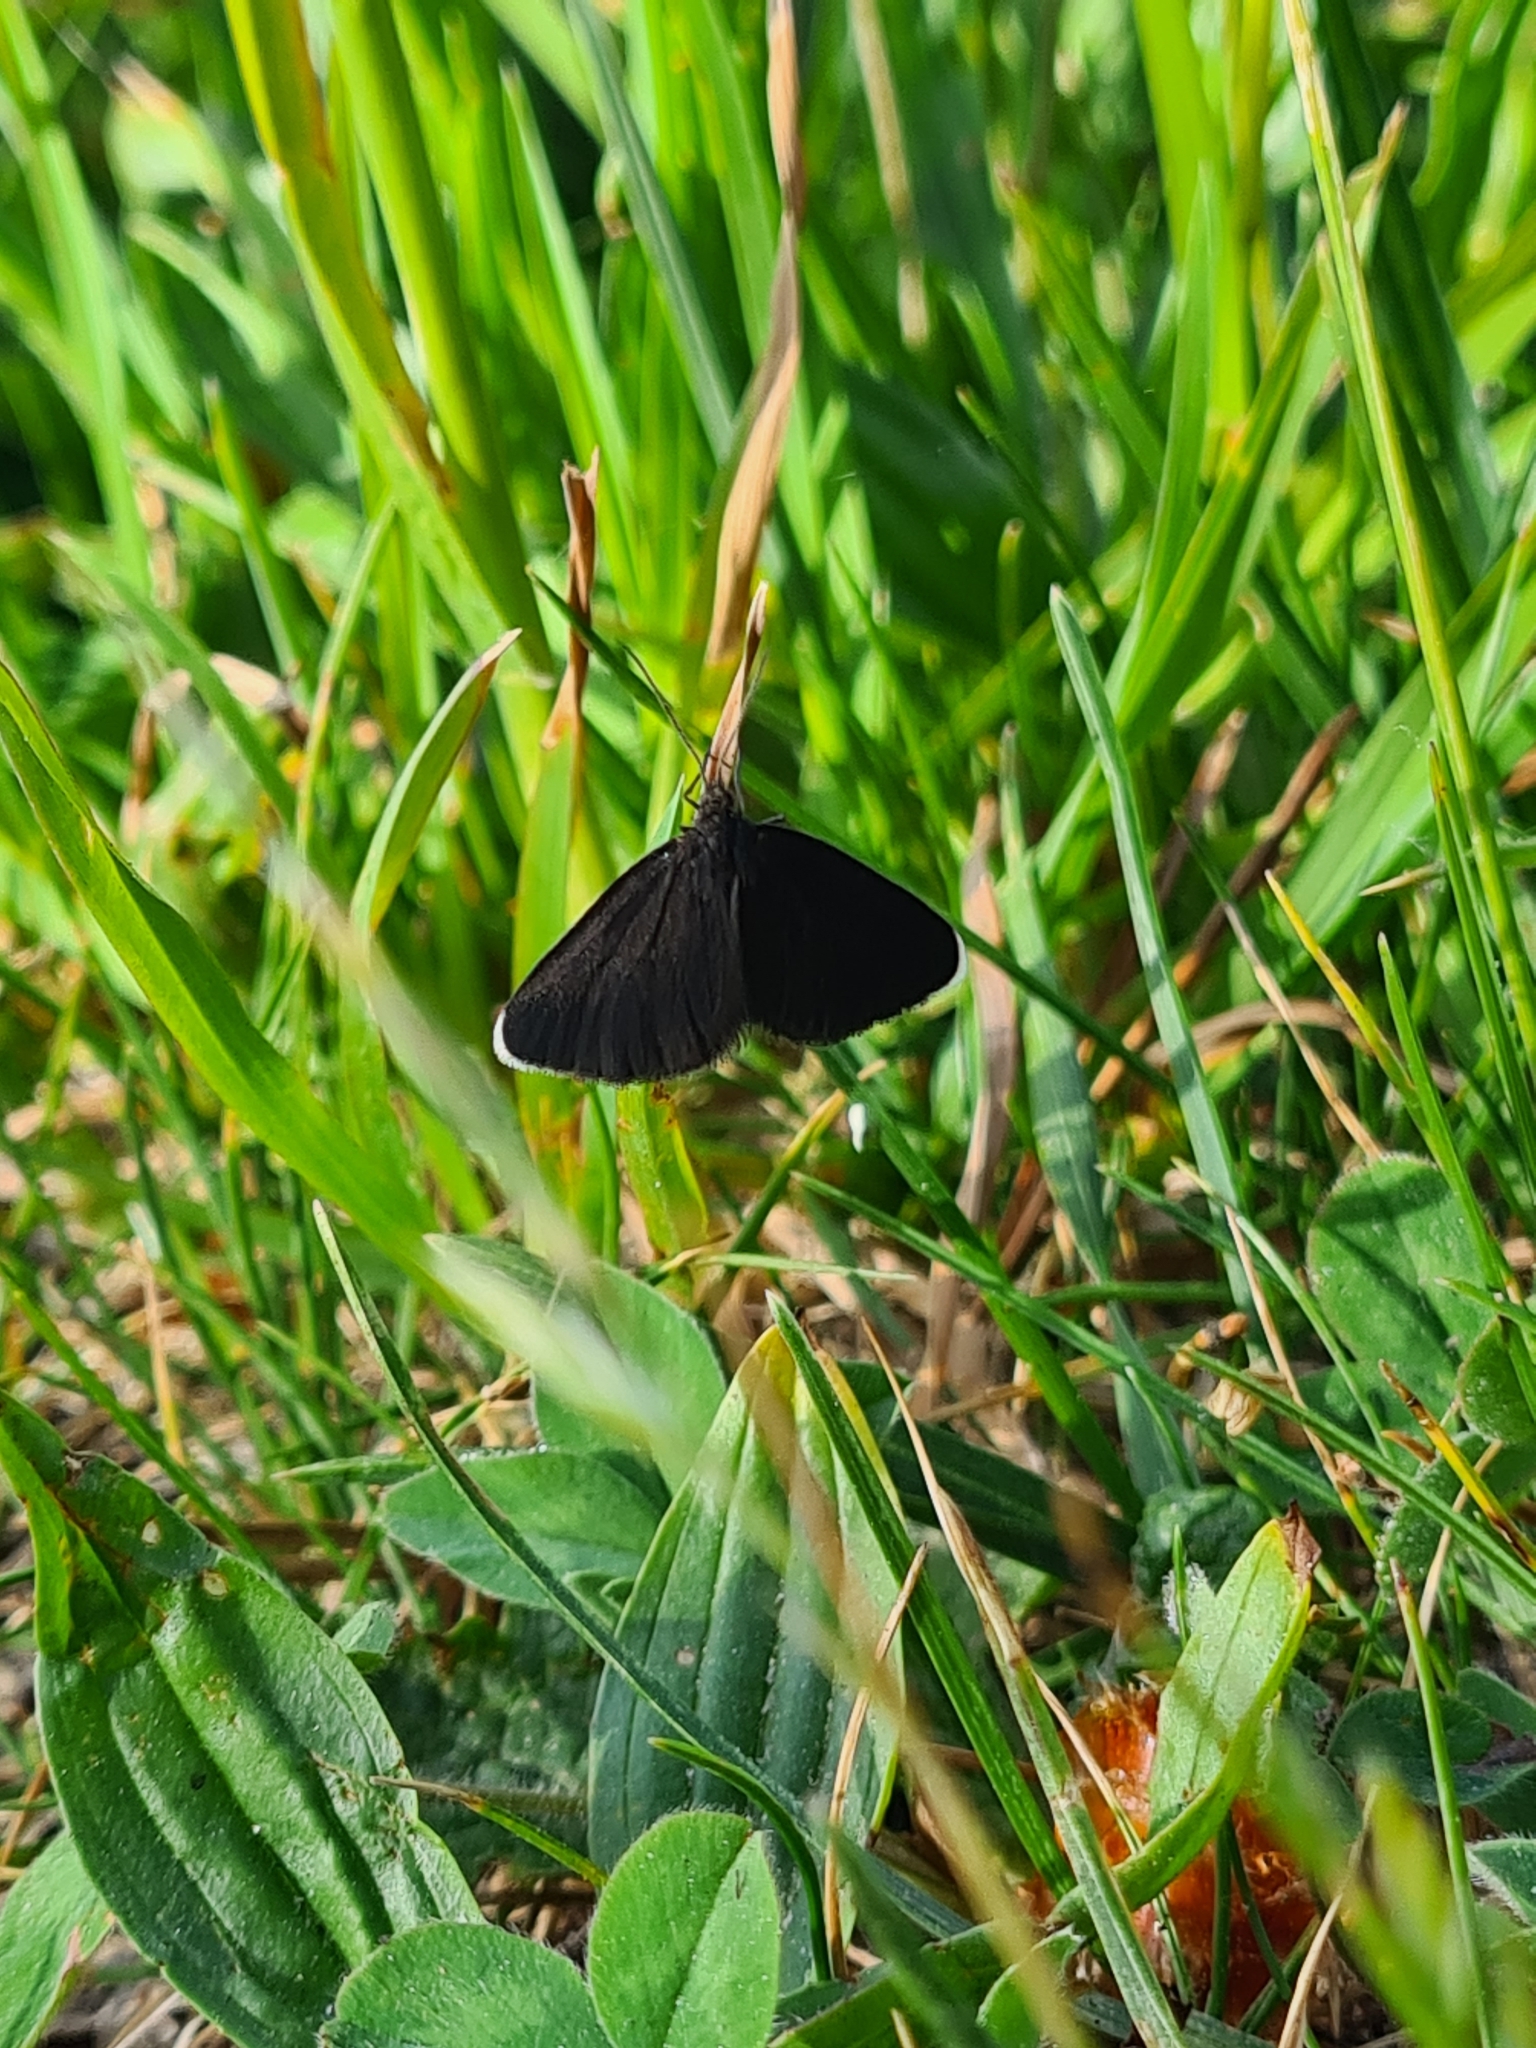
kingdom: Animalia
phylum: Arthropoda
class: Insecta
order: Lepidoptera
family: Geometridae
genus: Odezia
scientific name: Odezia atrata
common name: Chimney sweeper
